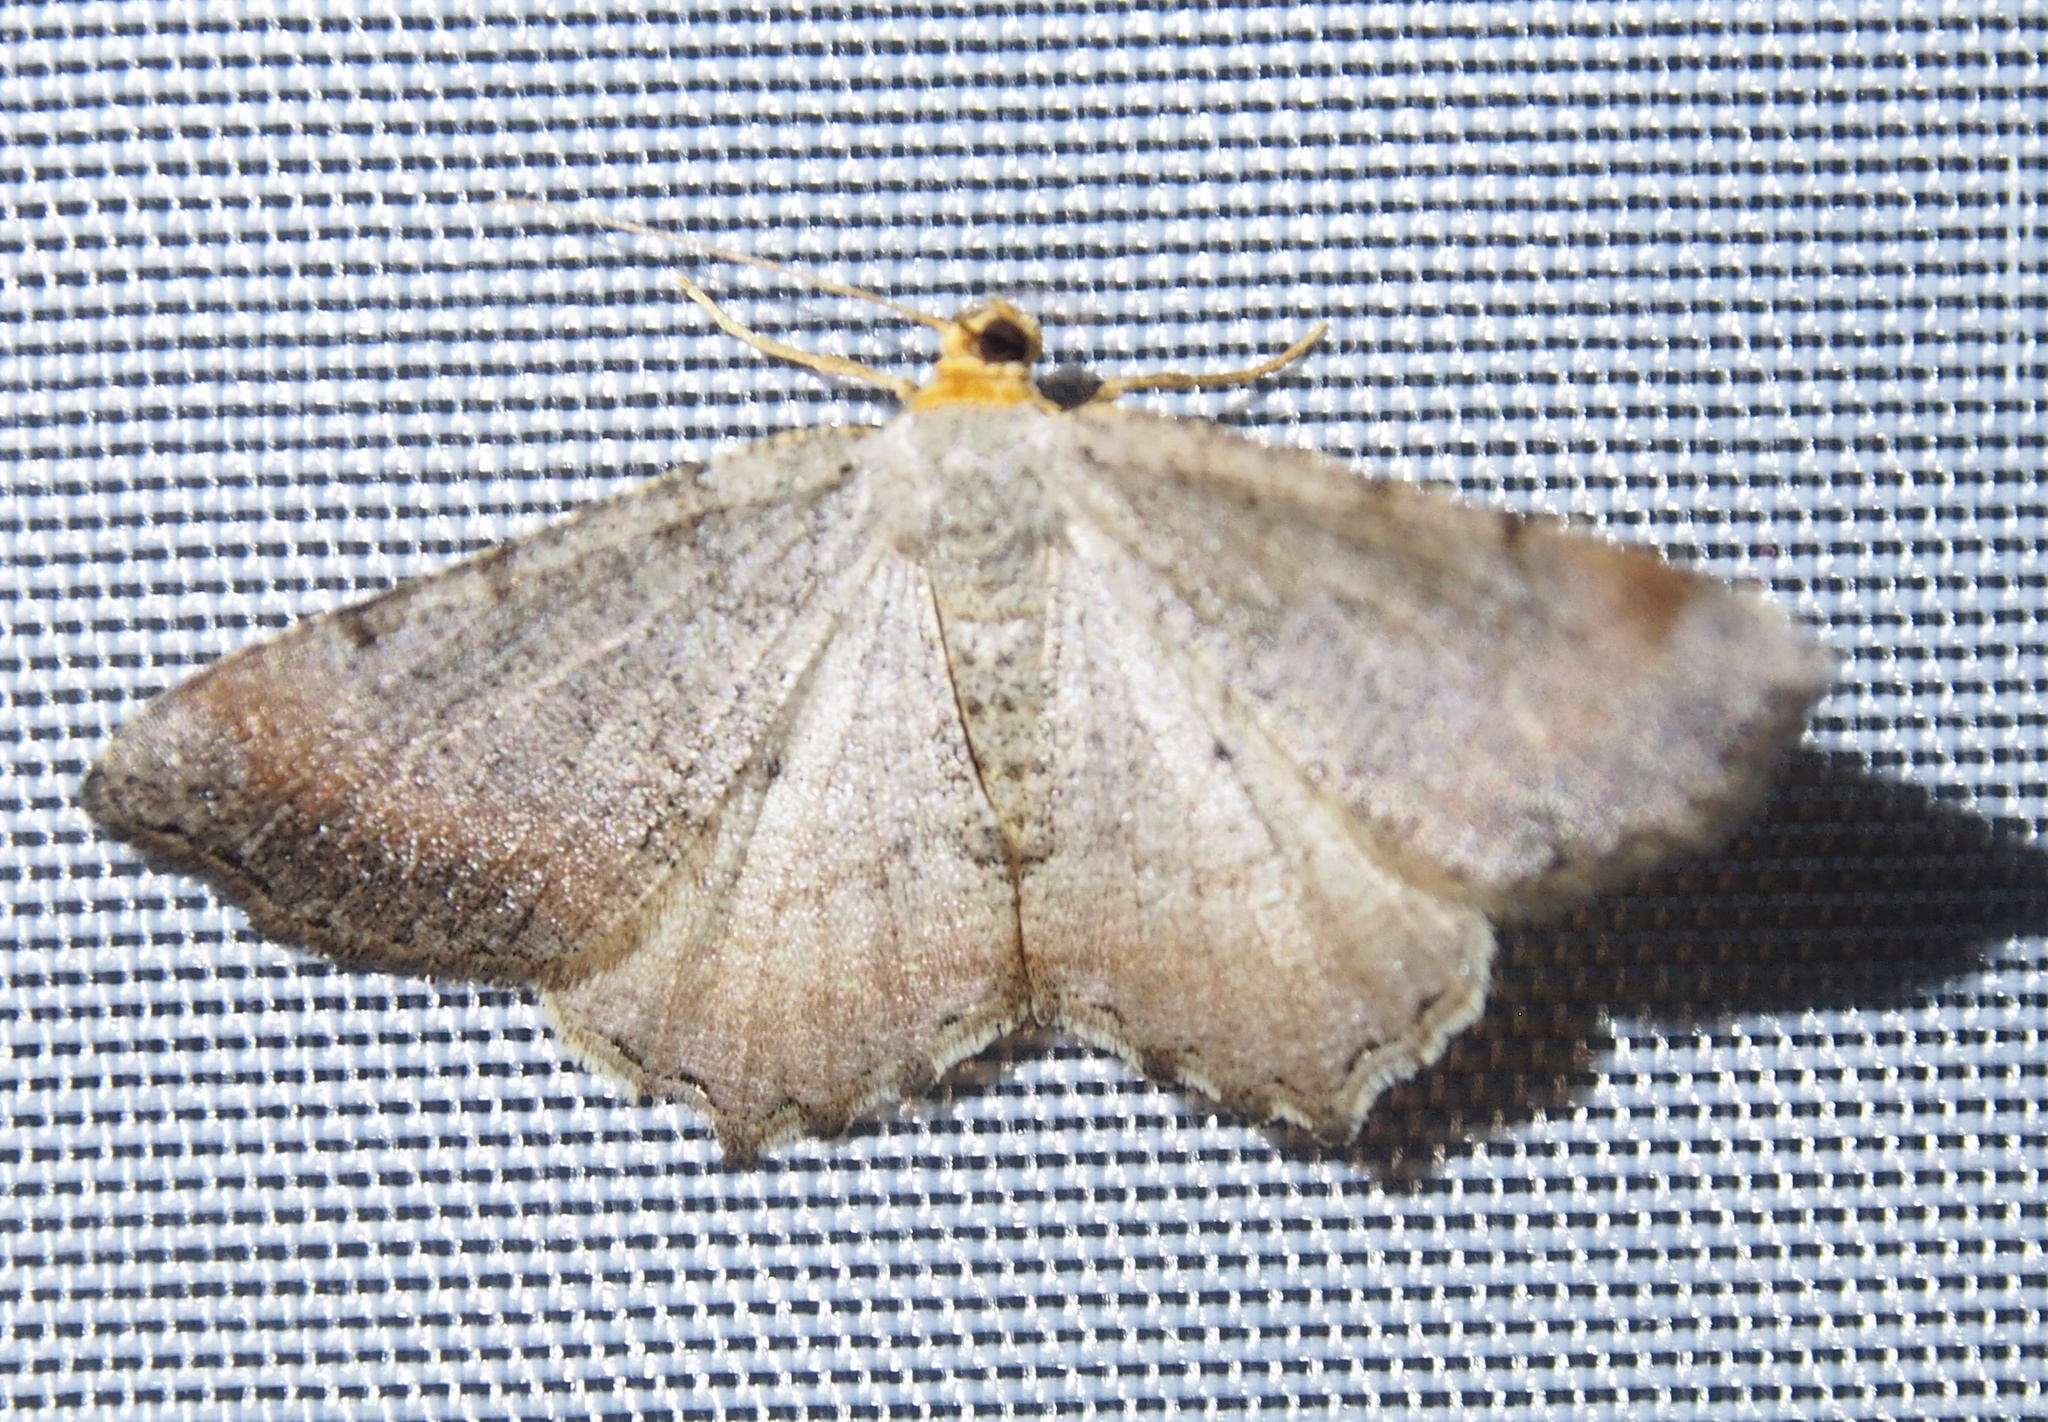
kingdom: Animalia
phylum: Arthropoda
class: Insecta
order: Lepidoptera
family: Geometridae
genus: Macaria
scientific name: Macaria minorata
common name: Minor angle moth
